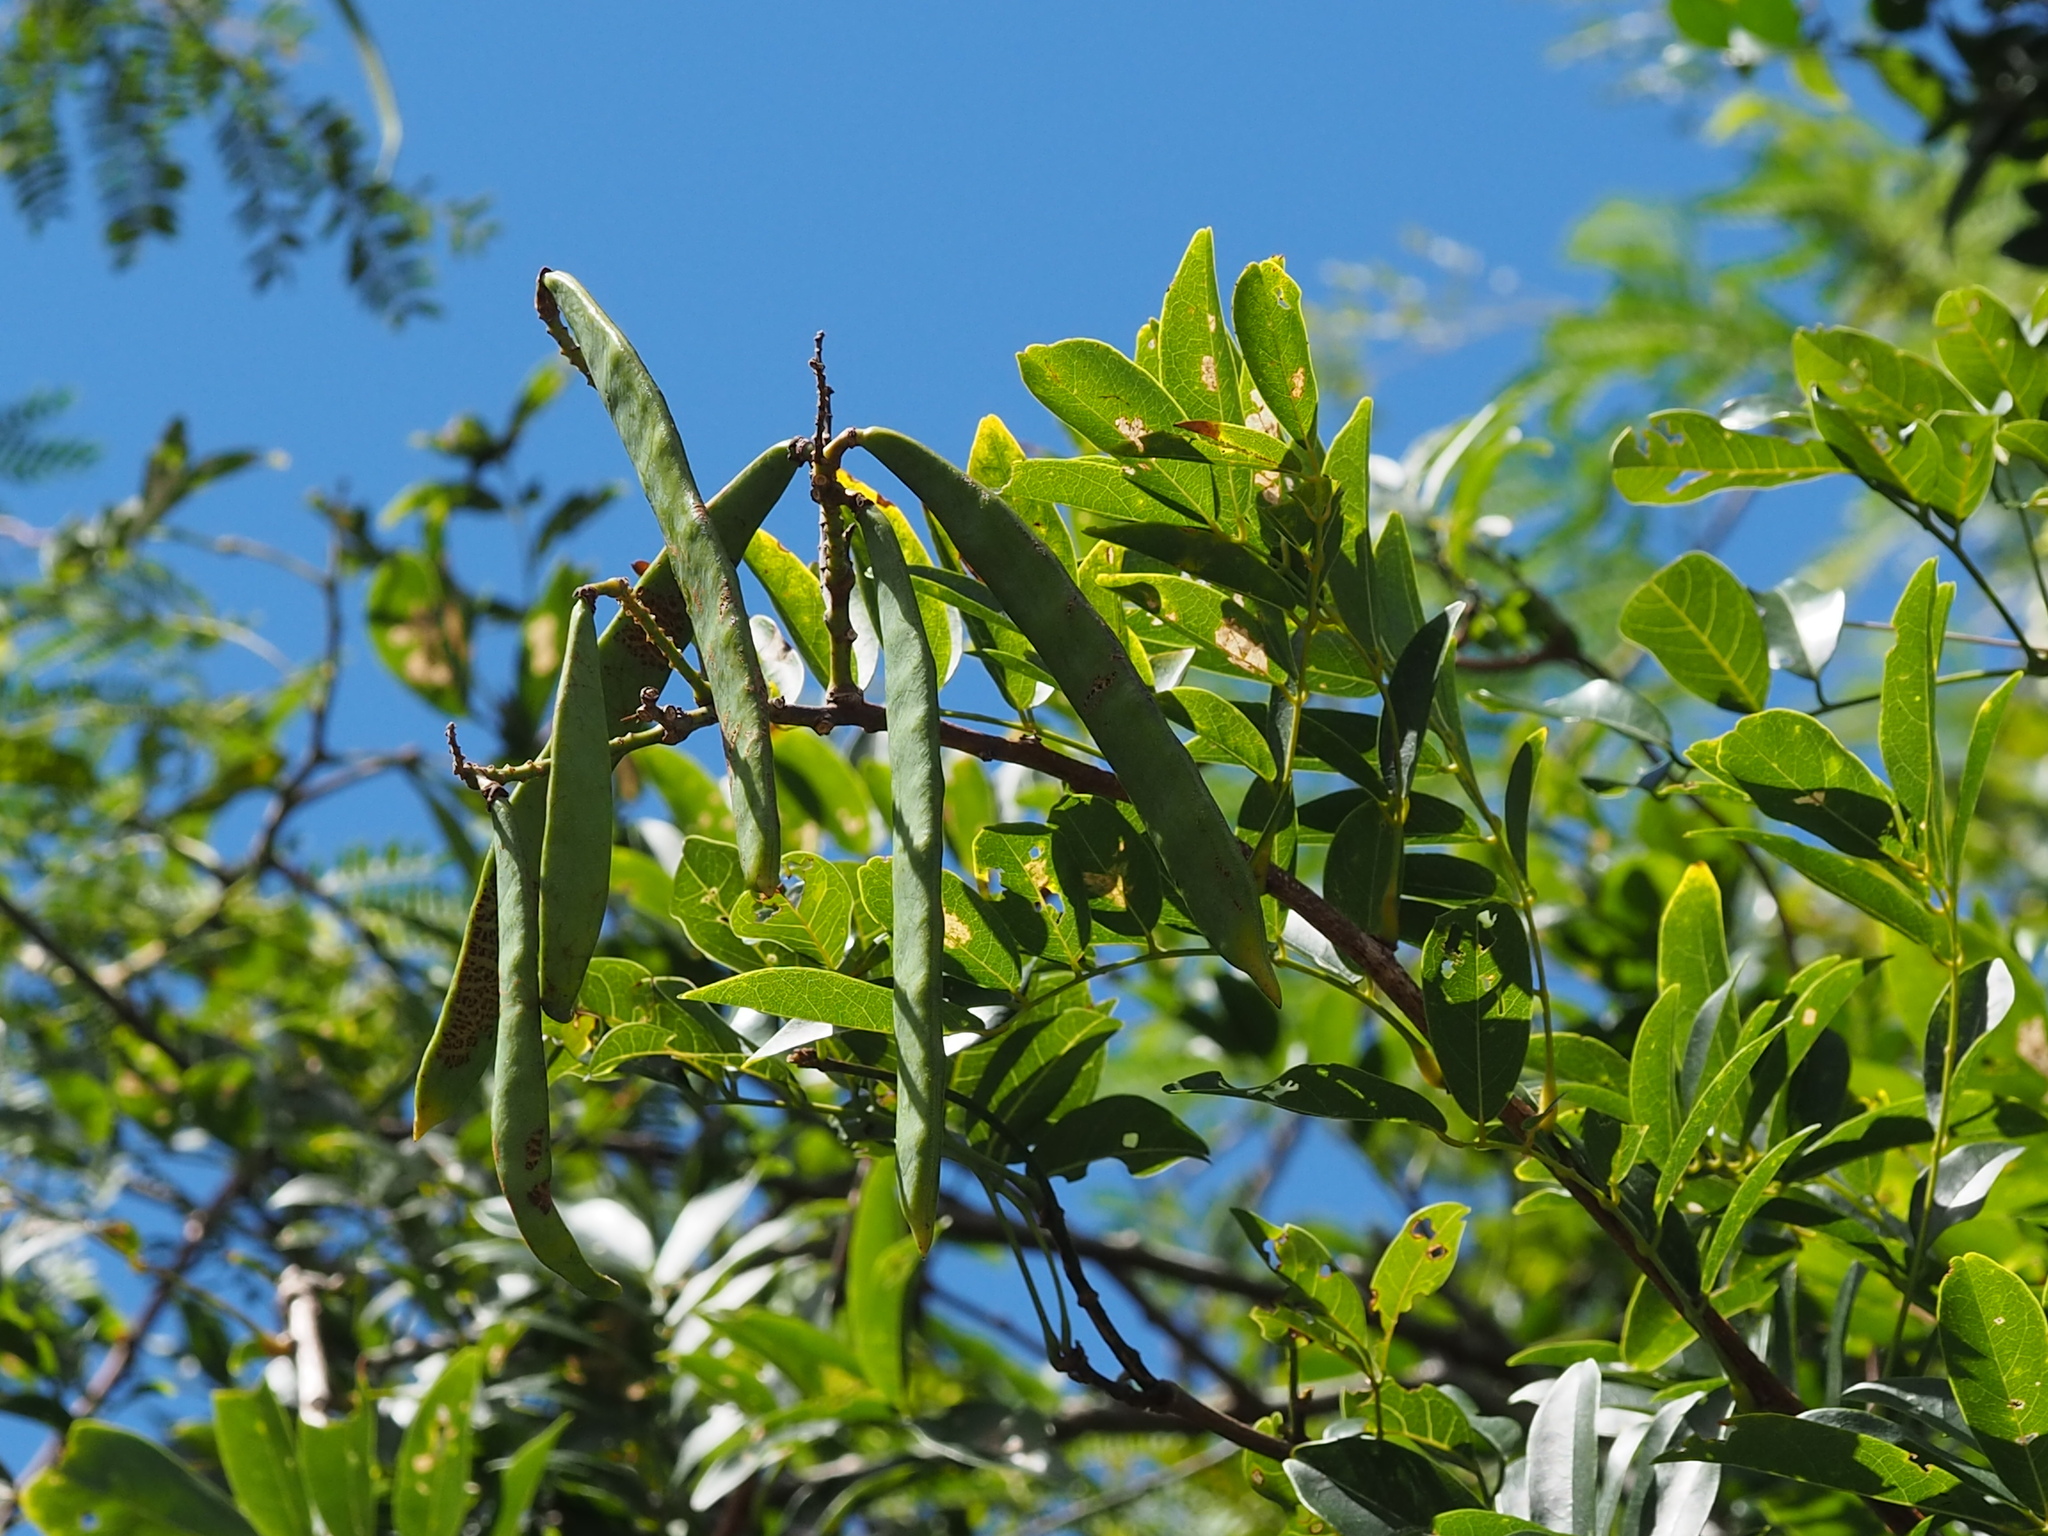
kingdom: Plantae
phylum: Tracheophyta
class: Magnoliopsida
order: Fabales
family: Fabaceae
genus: Wisteriopsis
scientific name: Wisteriopsis reticulata
